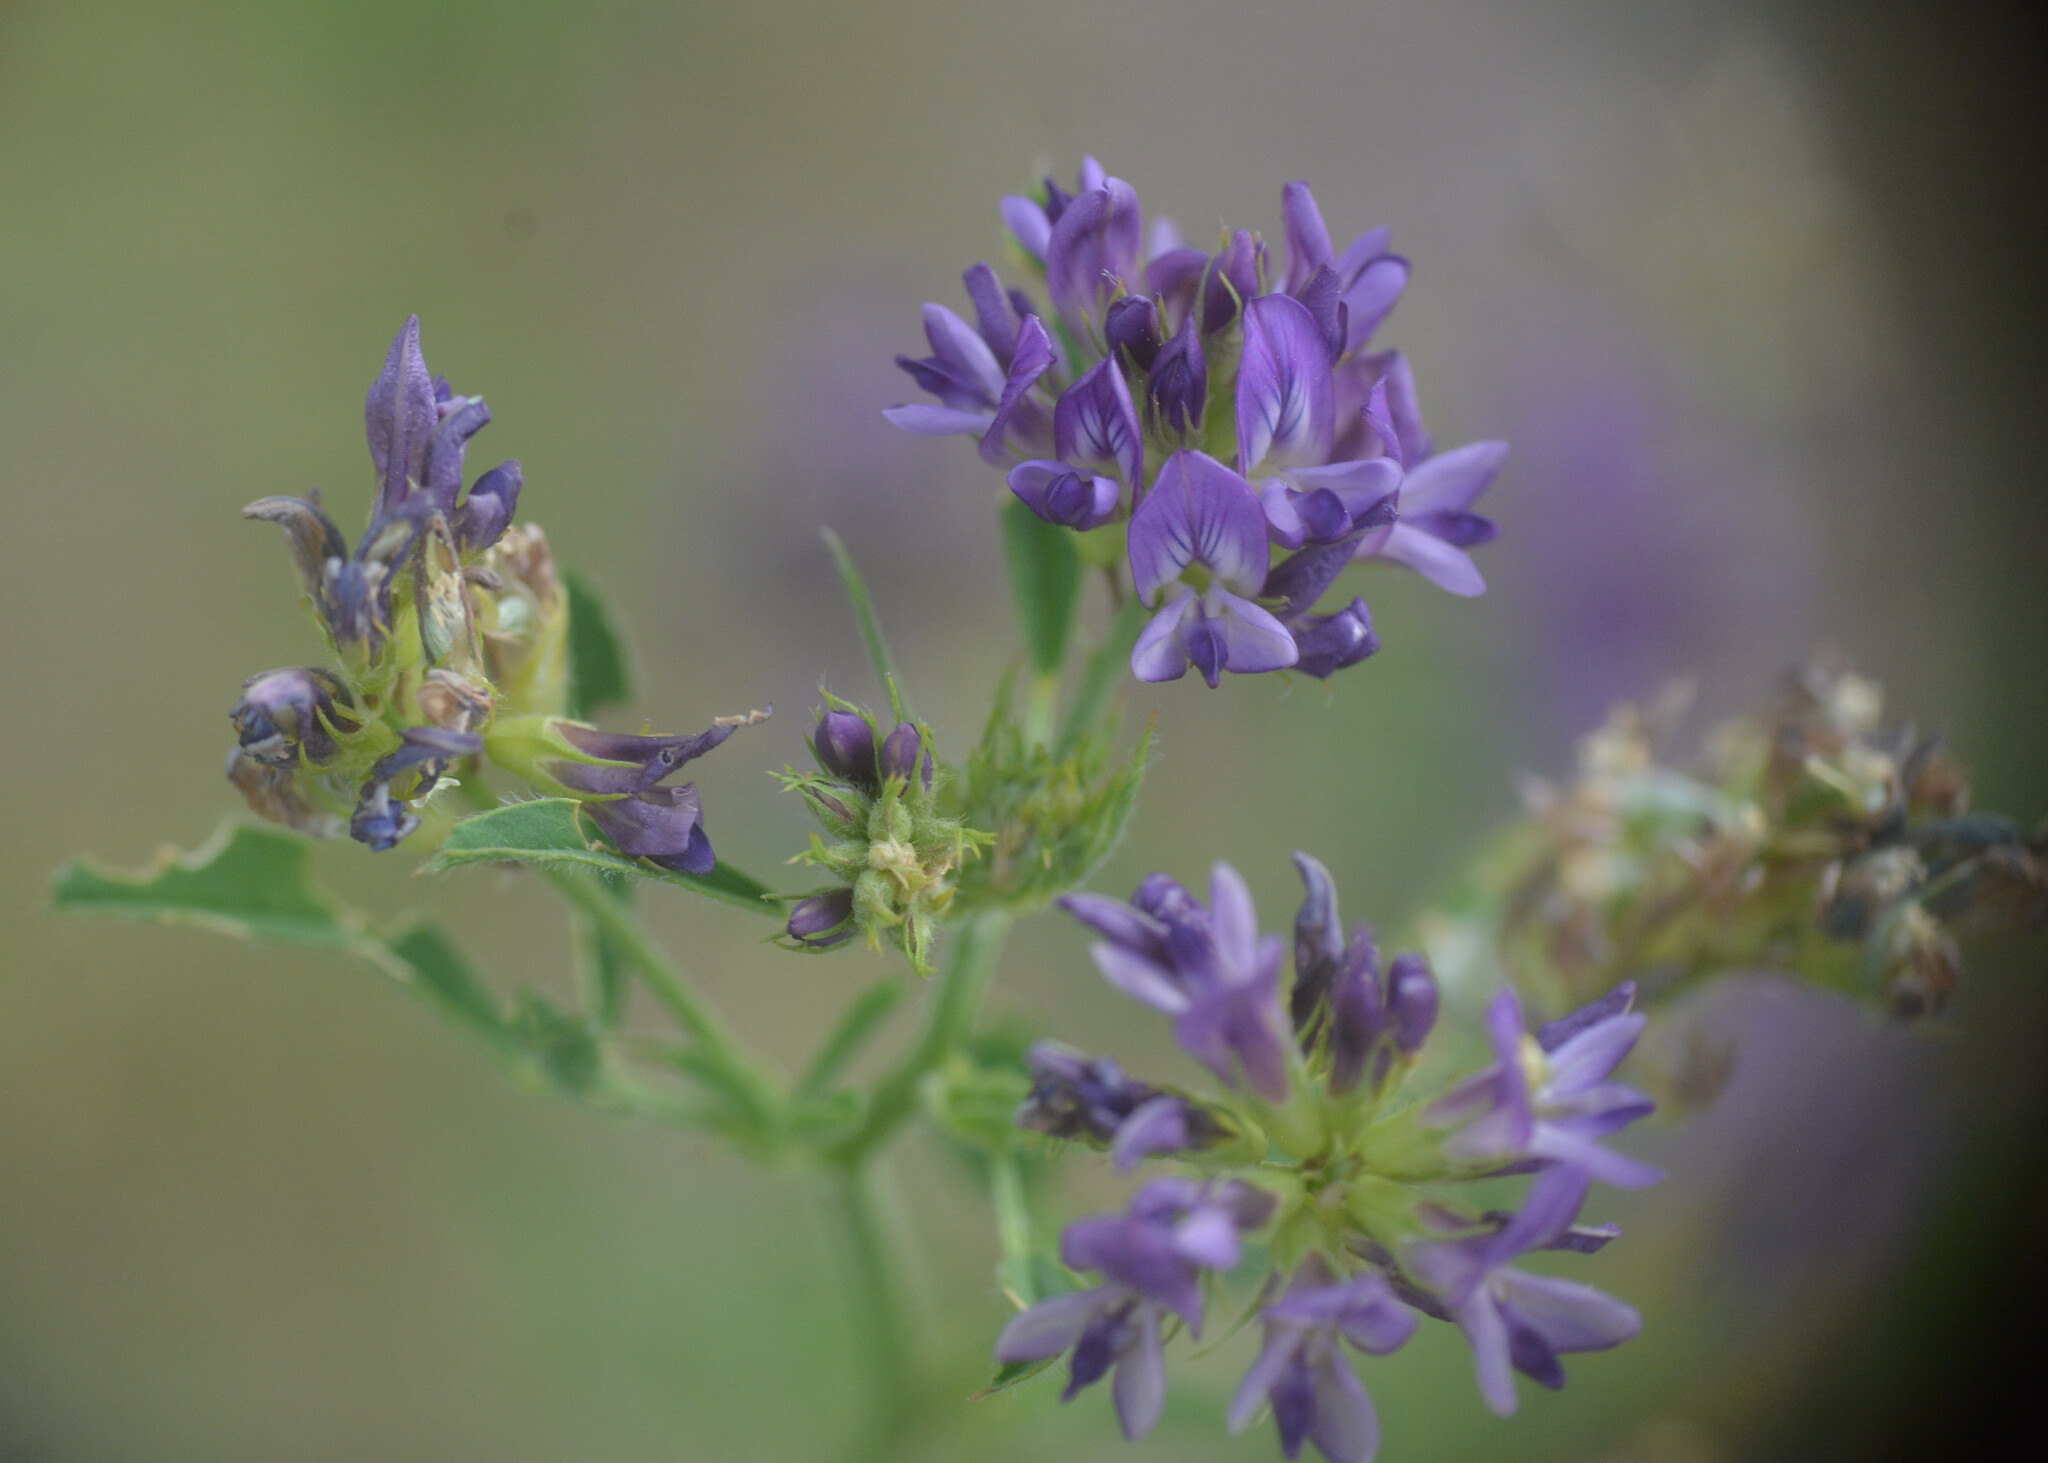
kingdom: Plantae
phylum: Tracheophyta
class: Magnoliopsida
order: Fabales
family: Fabaceae
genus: Medicago
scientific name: Medicago sativa
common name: Alfalfa
